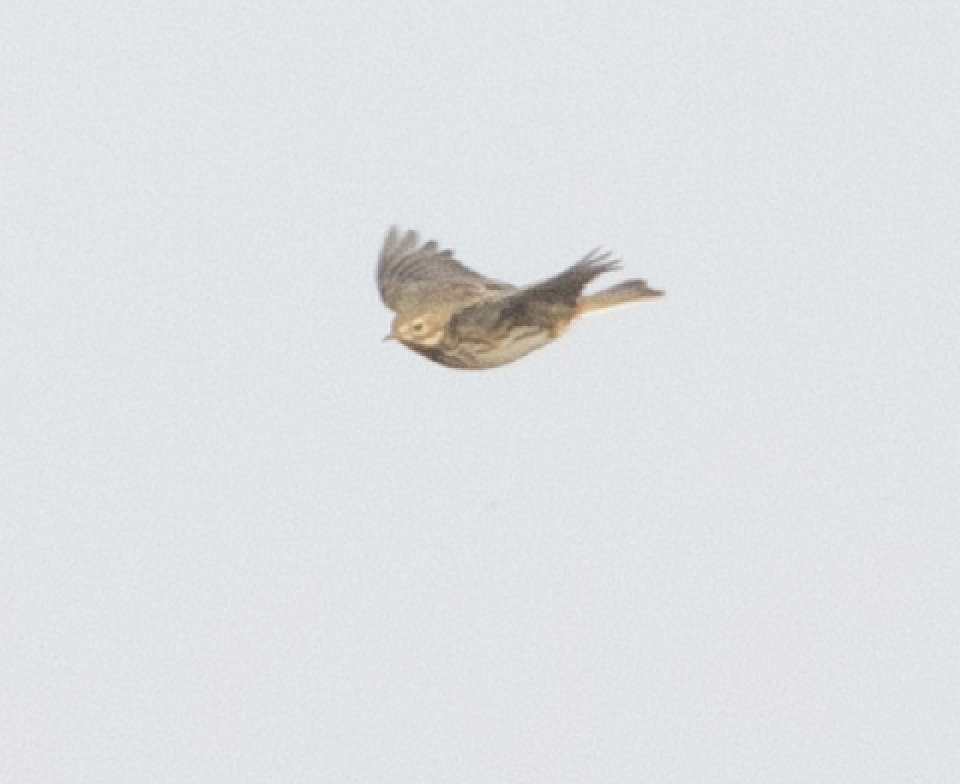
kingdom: Animalia
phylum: Chordata
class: Aves
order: Passeriformes
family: Motacillidae
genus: Anthus
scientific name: Anthus pratensis
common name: Meadow pipit
